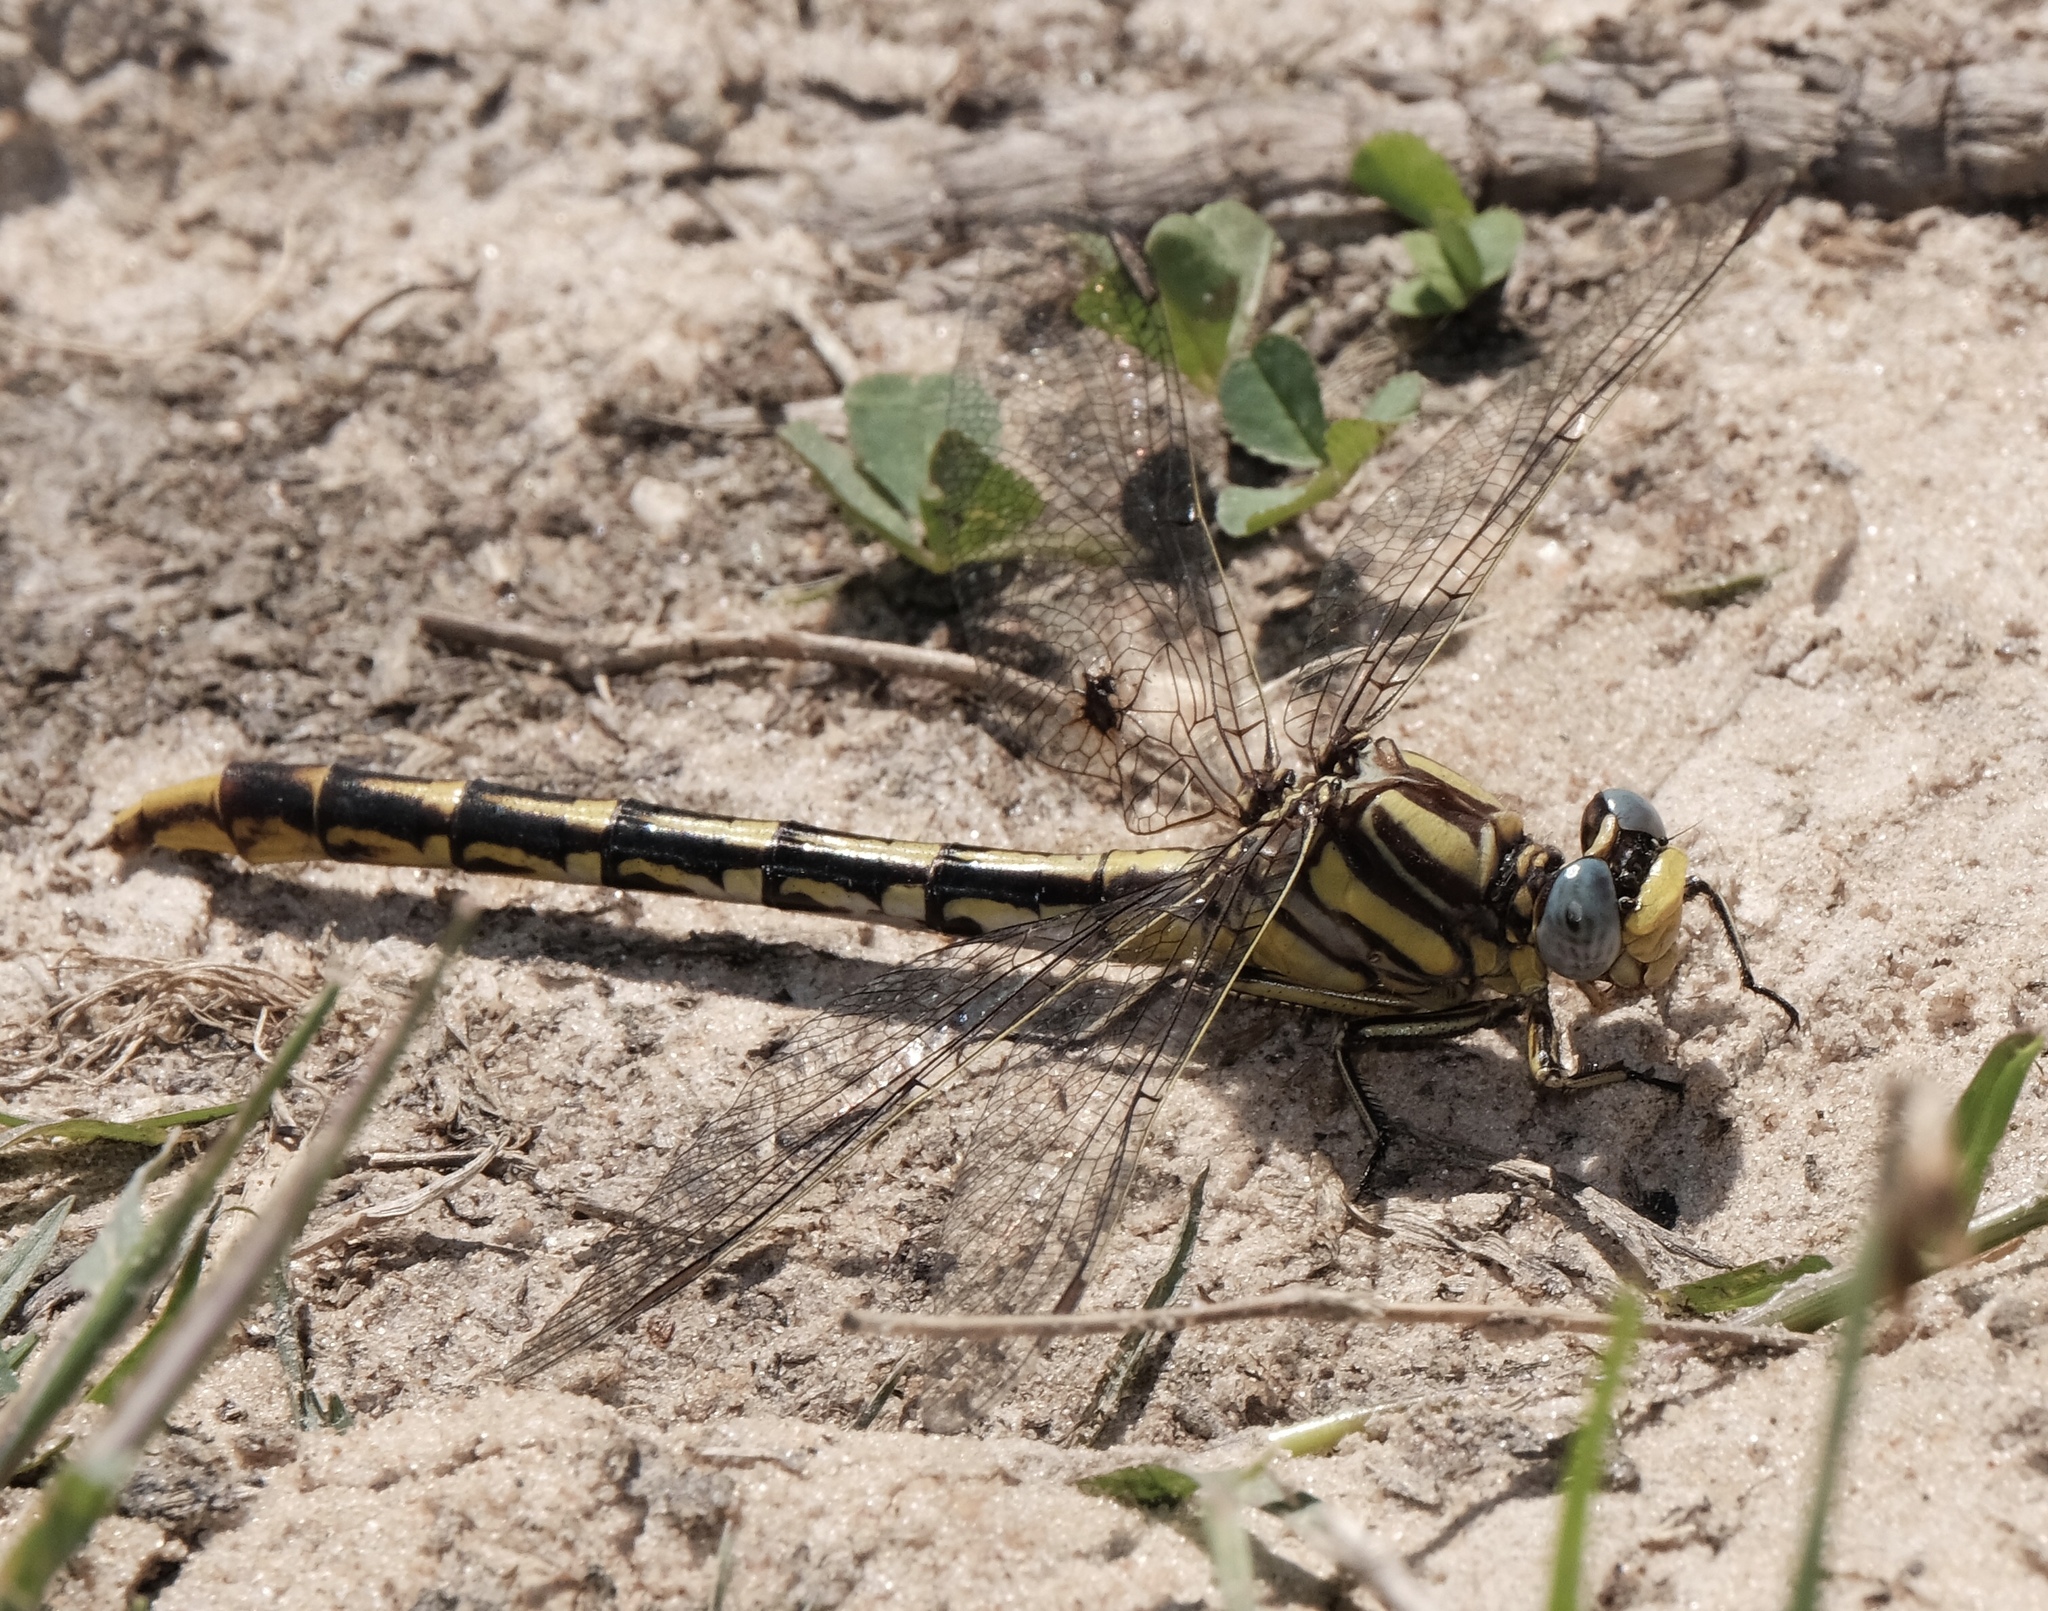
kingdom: Animalia
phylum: Arthropoda
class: Insecta
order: Odonata
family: Gomphidae
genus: Phanogomphus
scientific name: Phanogomphus militaris
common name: Sulphur-tipped clubtail
